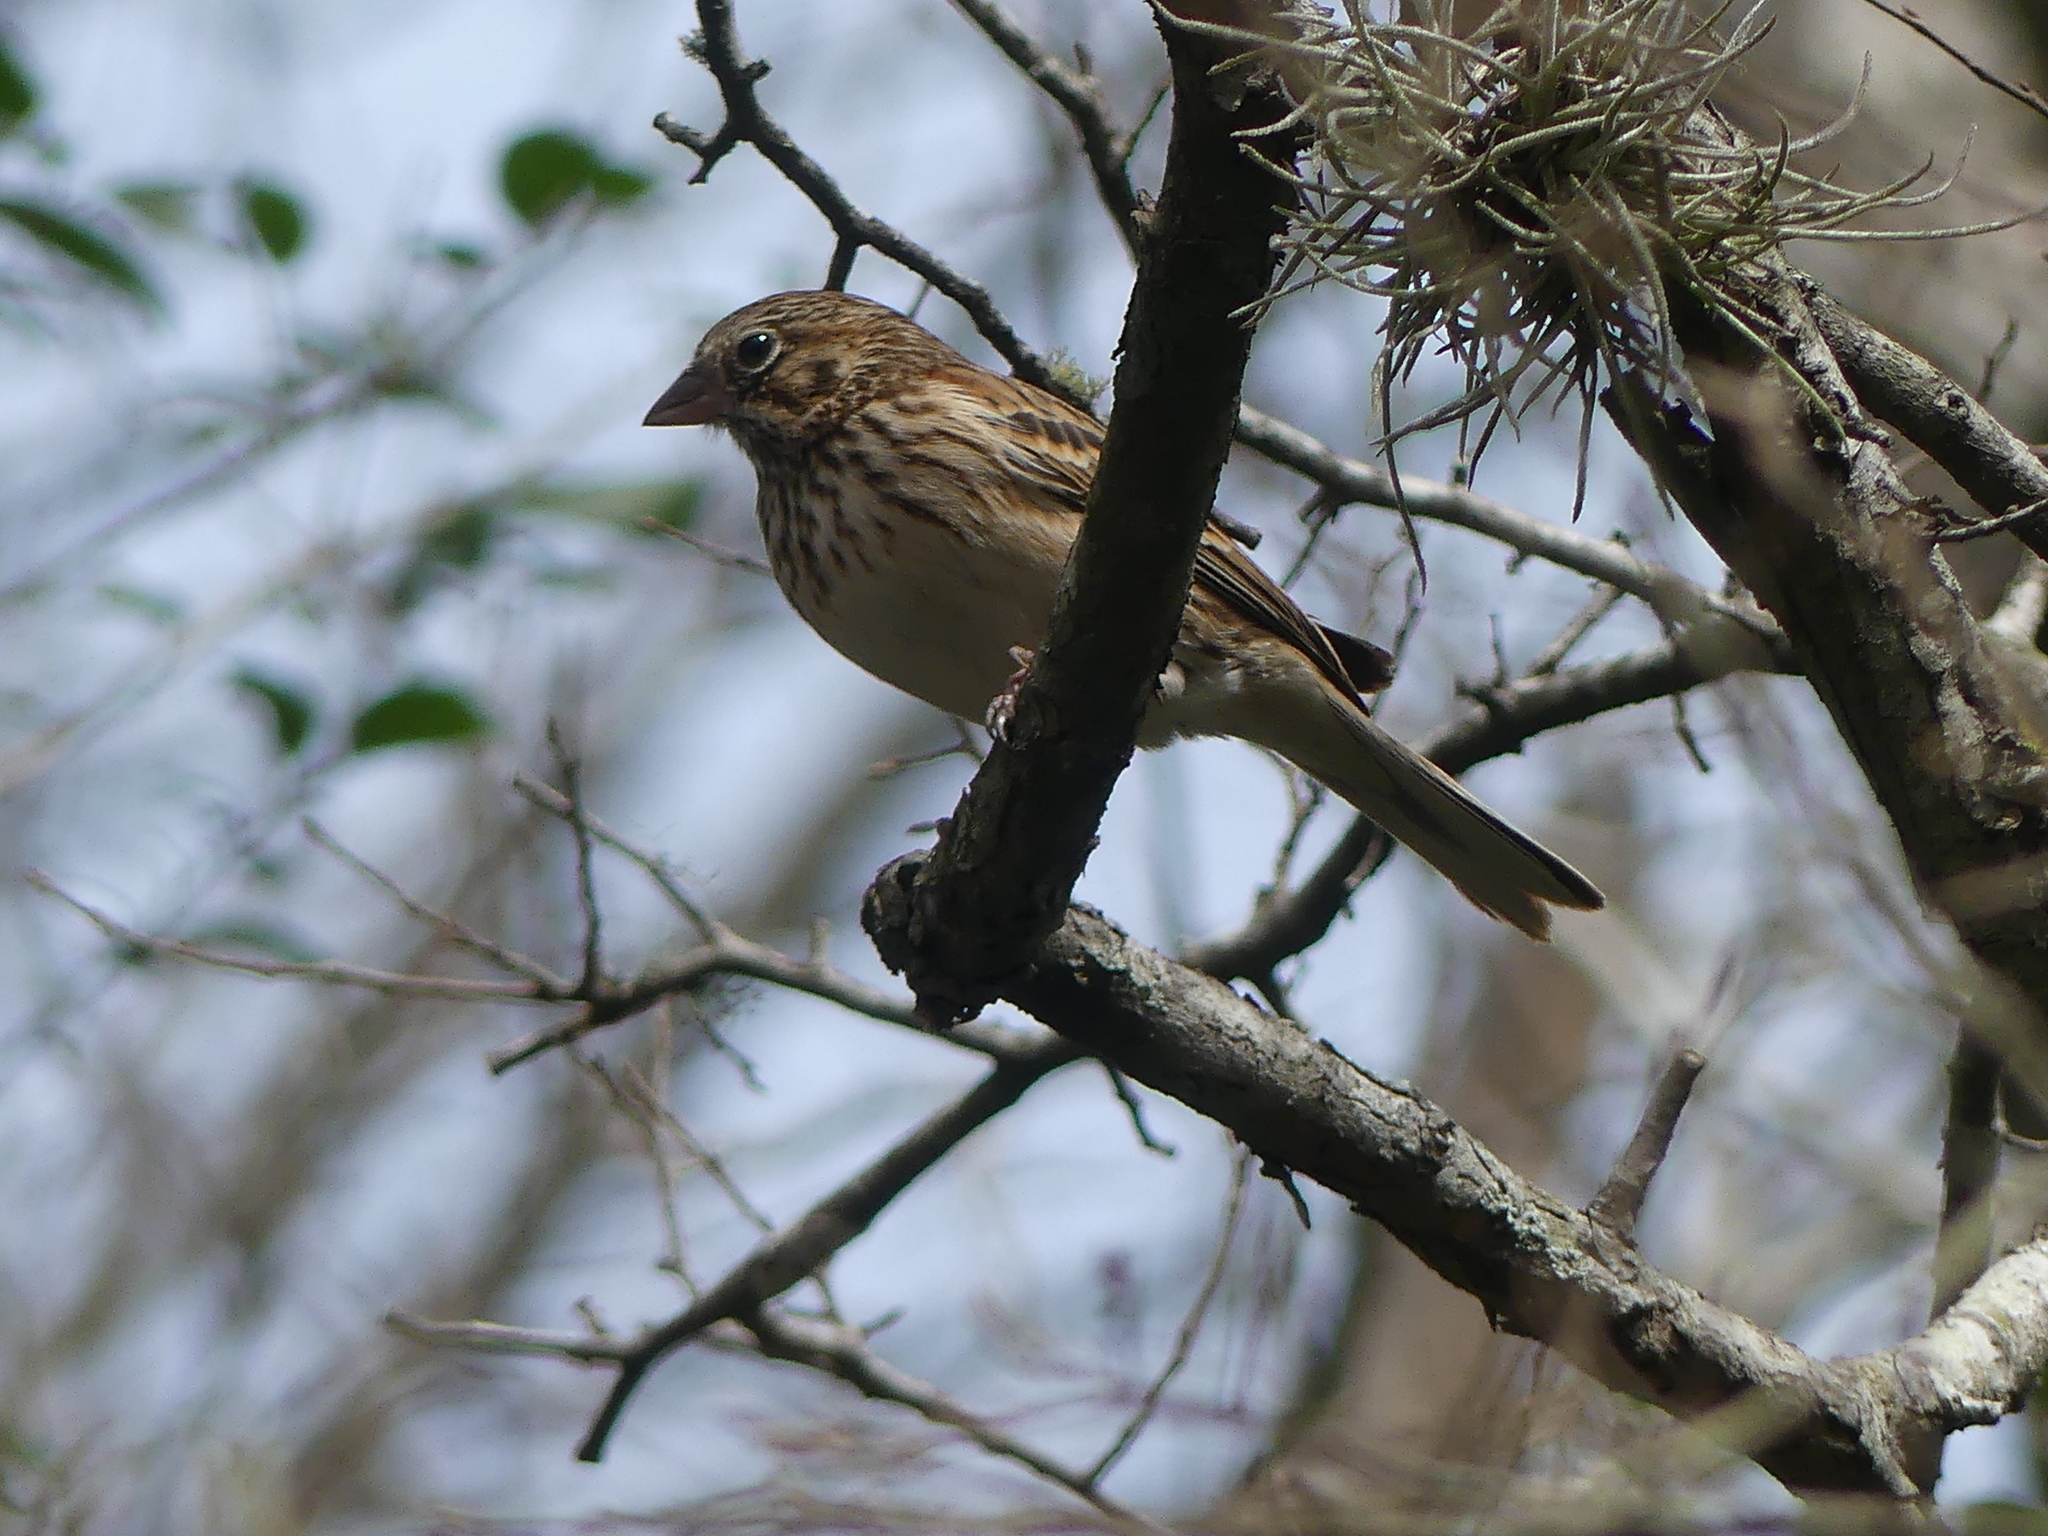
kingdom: Animalia
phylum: Chordata
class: Aves
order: Passeriformes
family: Passerellidae
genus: Pooecetes
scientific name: Pooecetes gramineus
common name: Vesper sparrow
